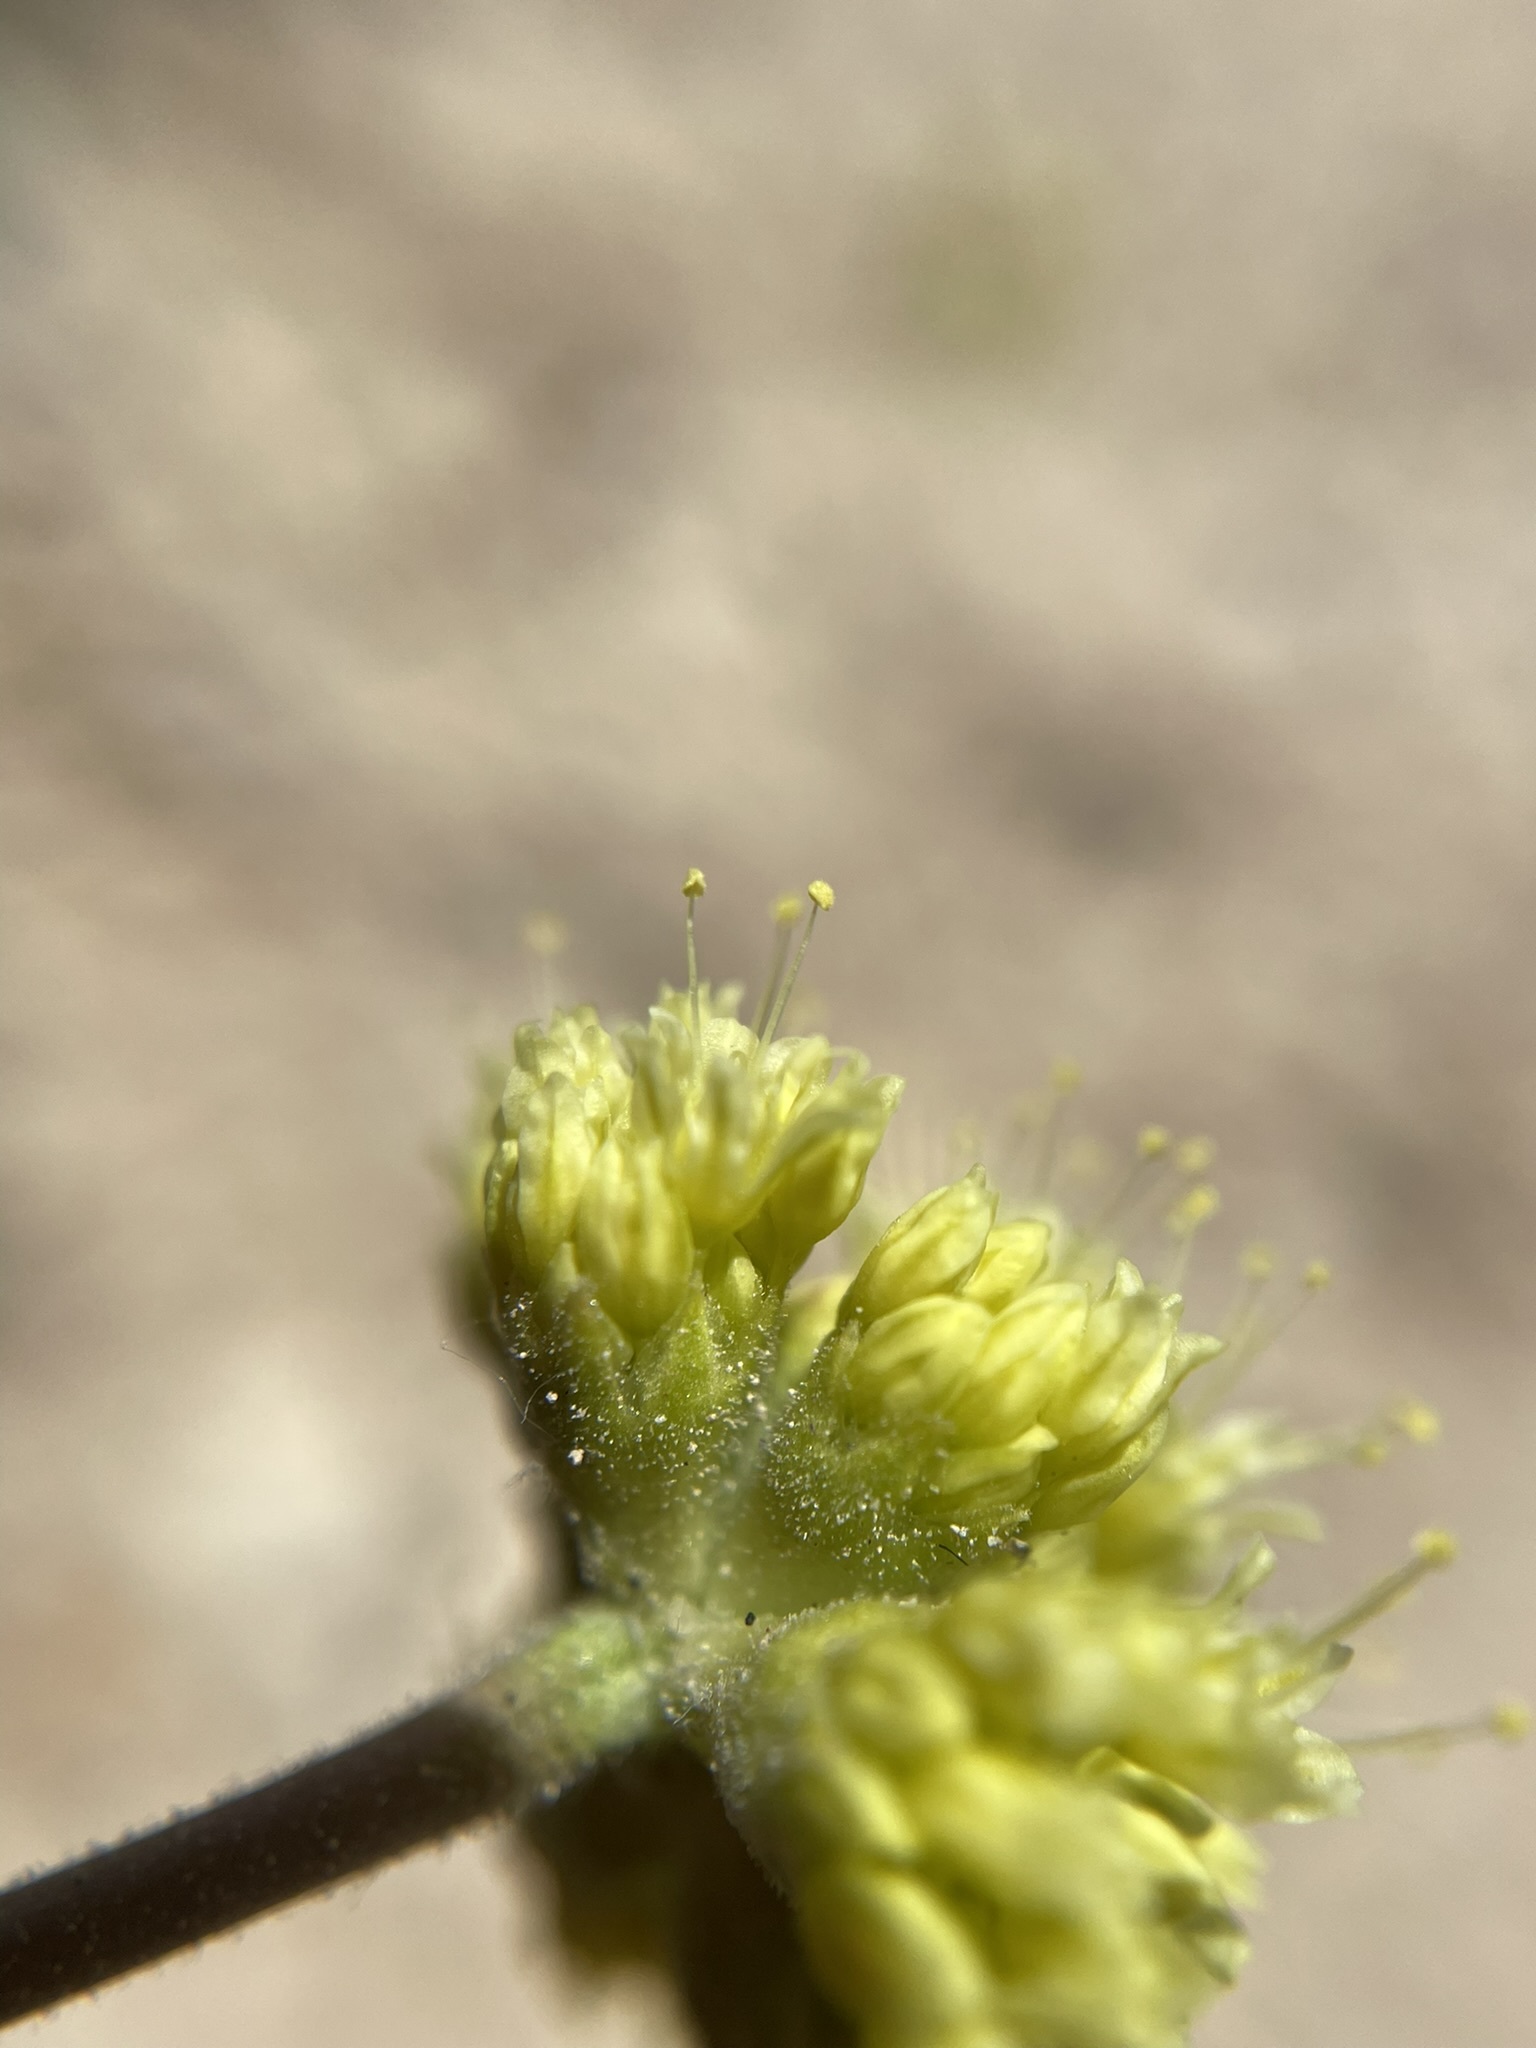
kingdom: Plantae
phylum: Tracheophyta
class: Magnoliopsida
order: Caryophyllales
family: Polygonaceae
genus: Eriogonum
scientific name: Eriogonum ochrocephalum
